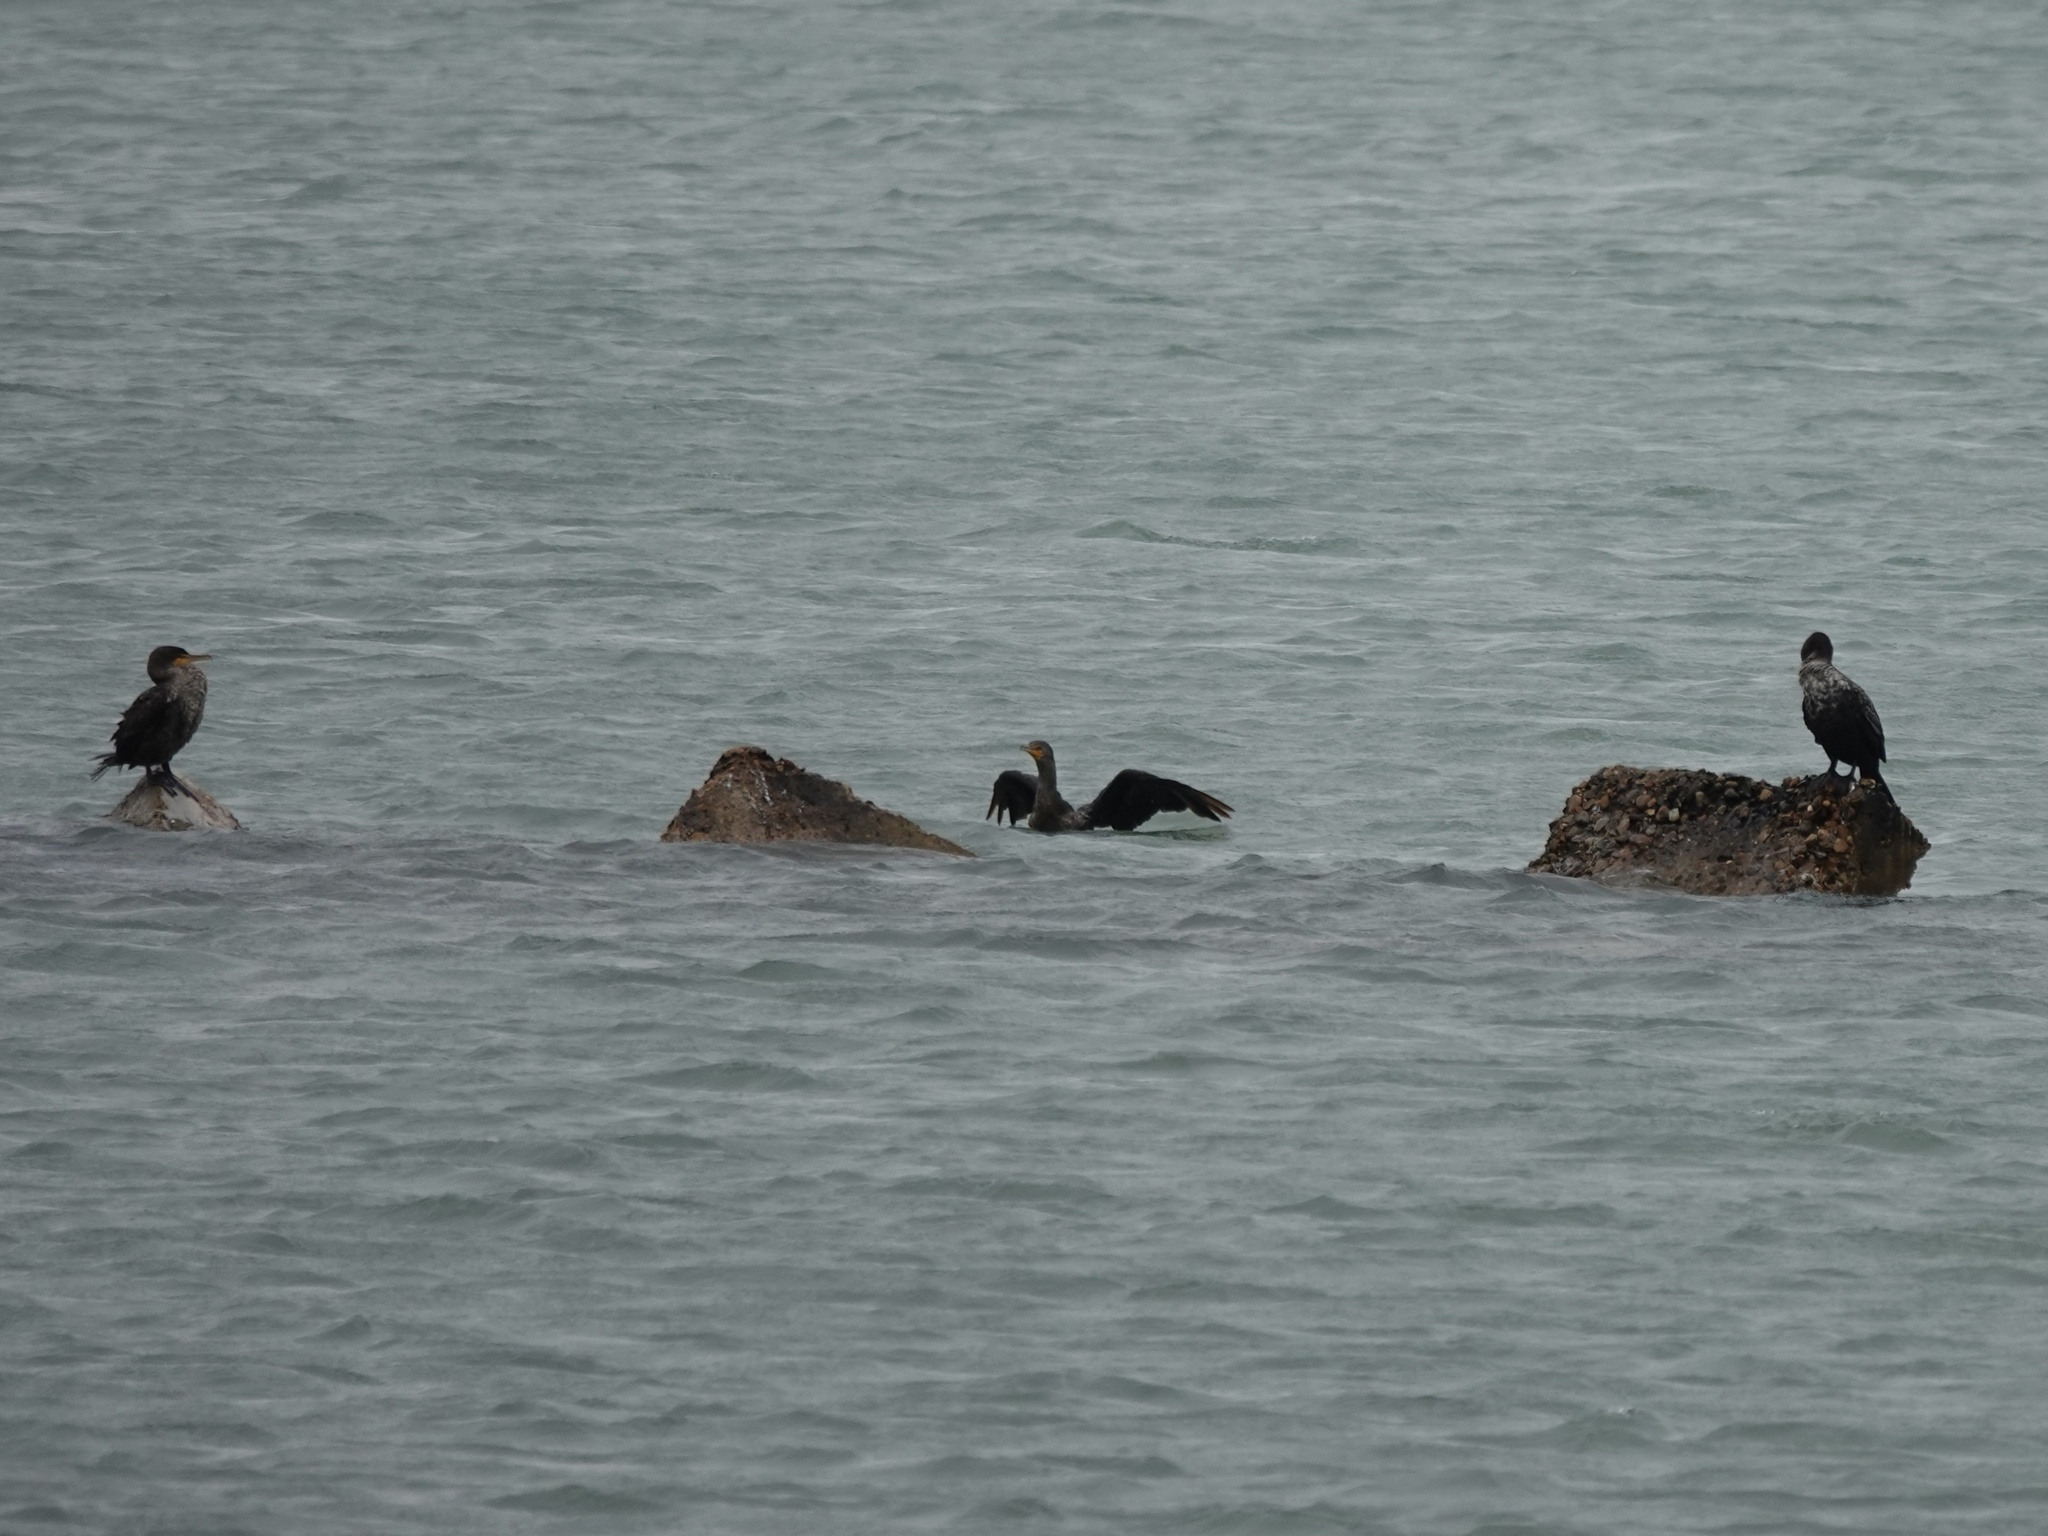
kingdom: Animalia
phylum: Chordata
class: Aves
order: Suliformes
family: Phalacrocoracidae
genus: Phalacrocorax
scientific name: Phalacrocorax auritus
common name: Double-crested cormorant
